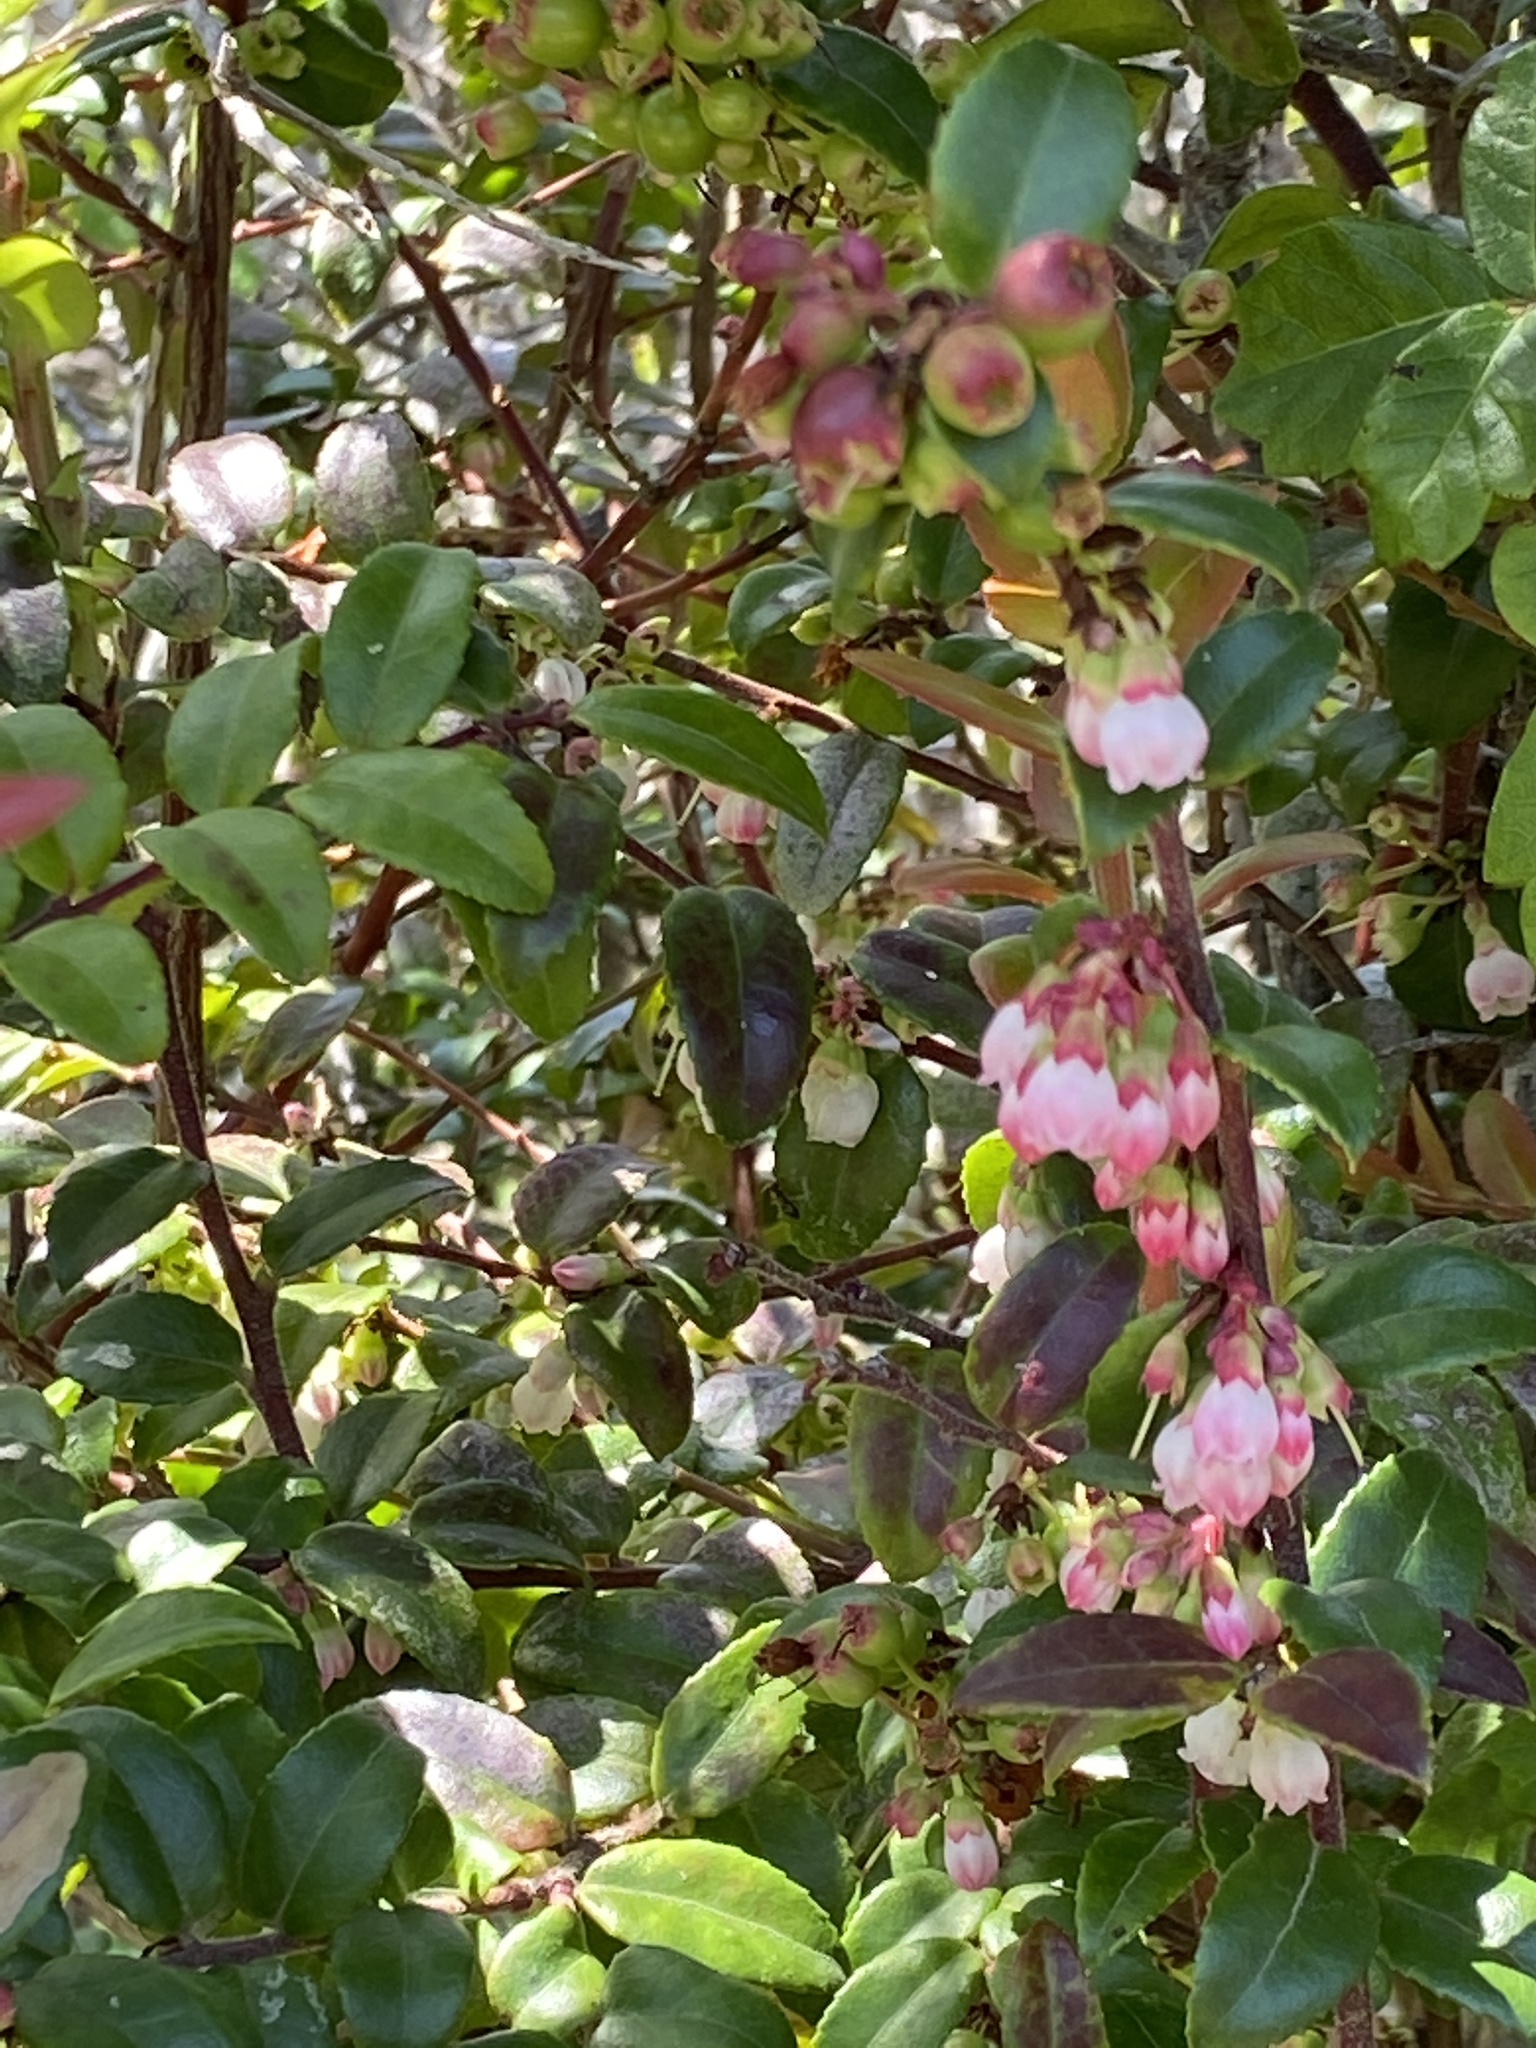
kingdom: Plantae
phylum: Tracheophyta
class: Magnoliopsida
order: Ericales
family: Ericaceae
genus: Vaccinium
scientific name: Vaccinium ovatum
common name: California-huckleberry
